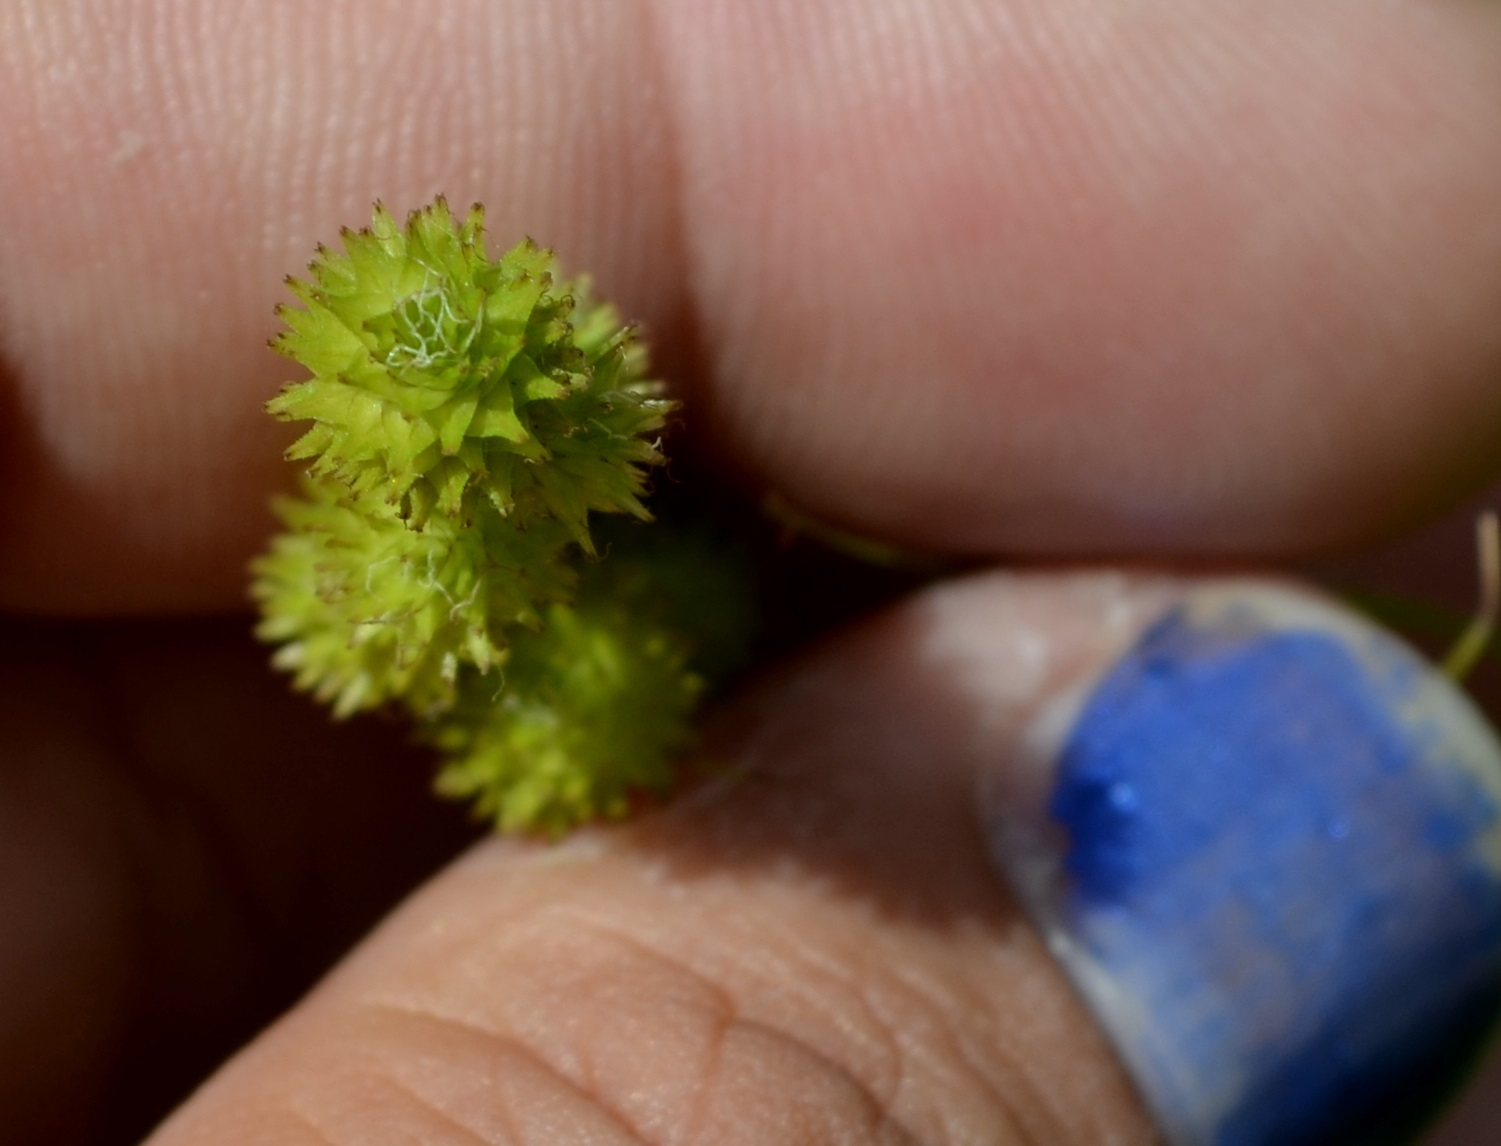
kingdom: Plantae
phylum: Tracheophyta
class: Liliopsida
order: Poales
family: Cyperaceae
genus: Carex
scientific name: Carex cristatella
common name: Crested oval sedge
